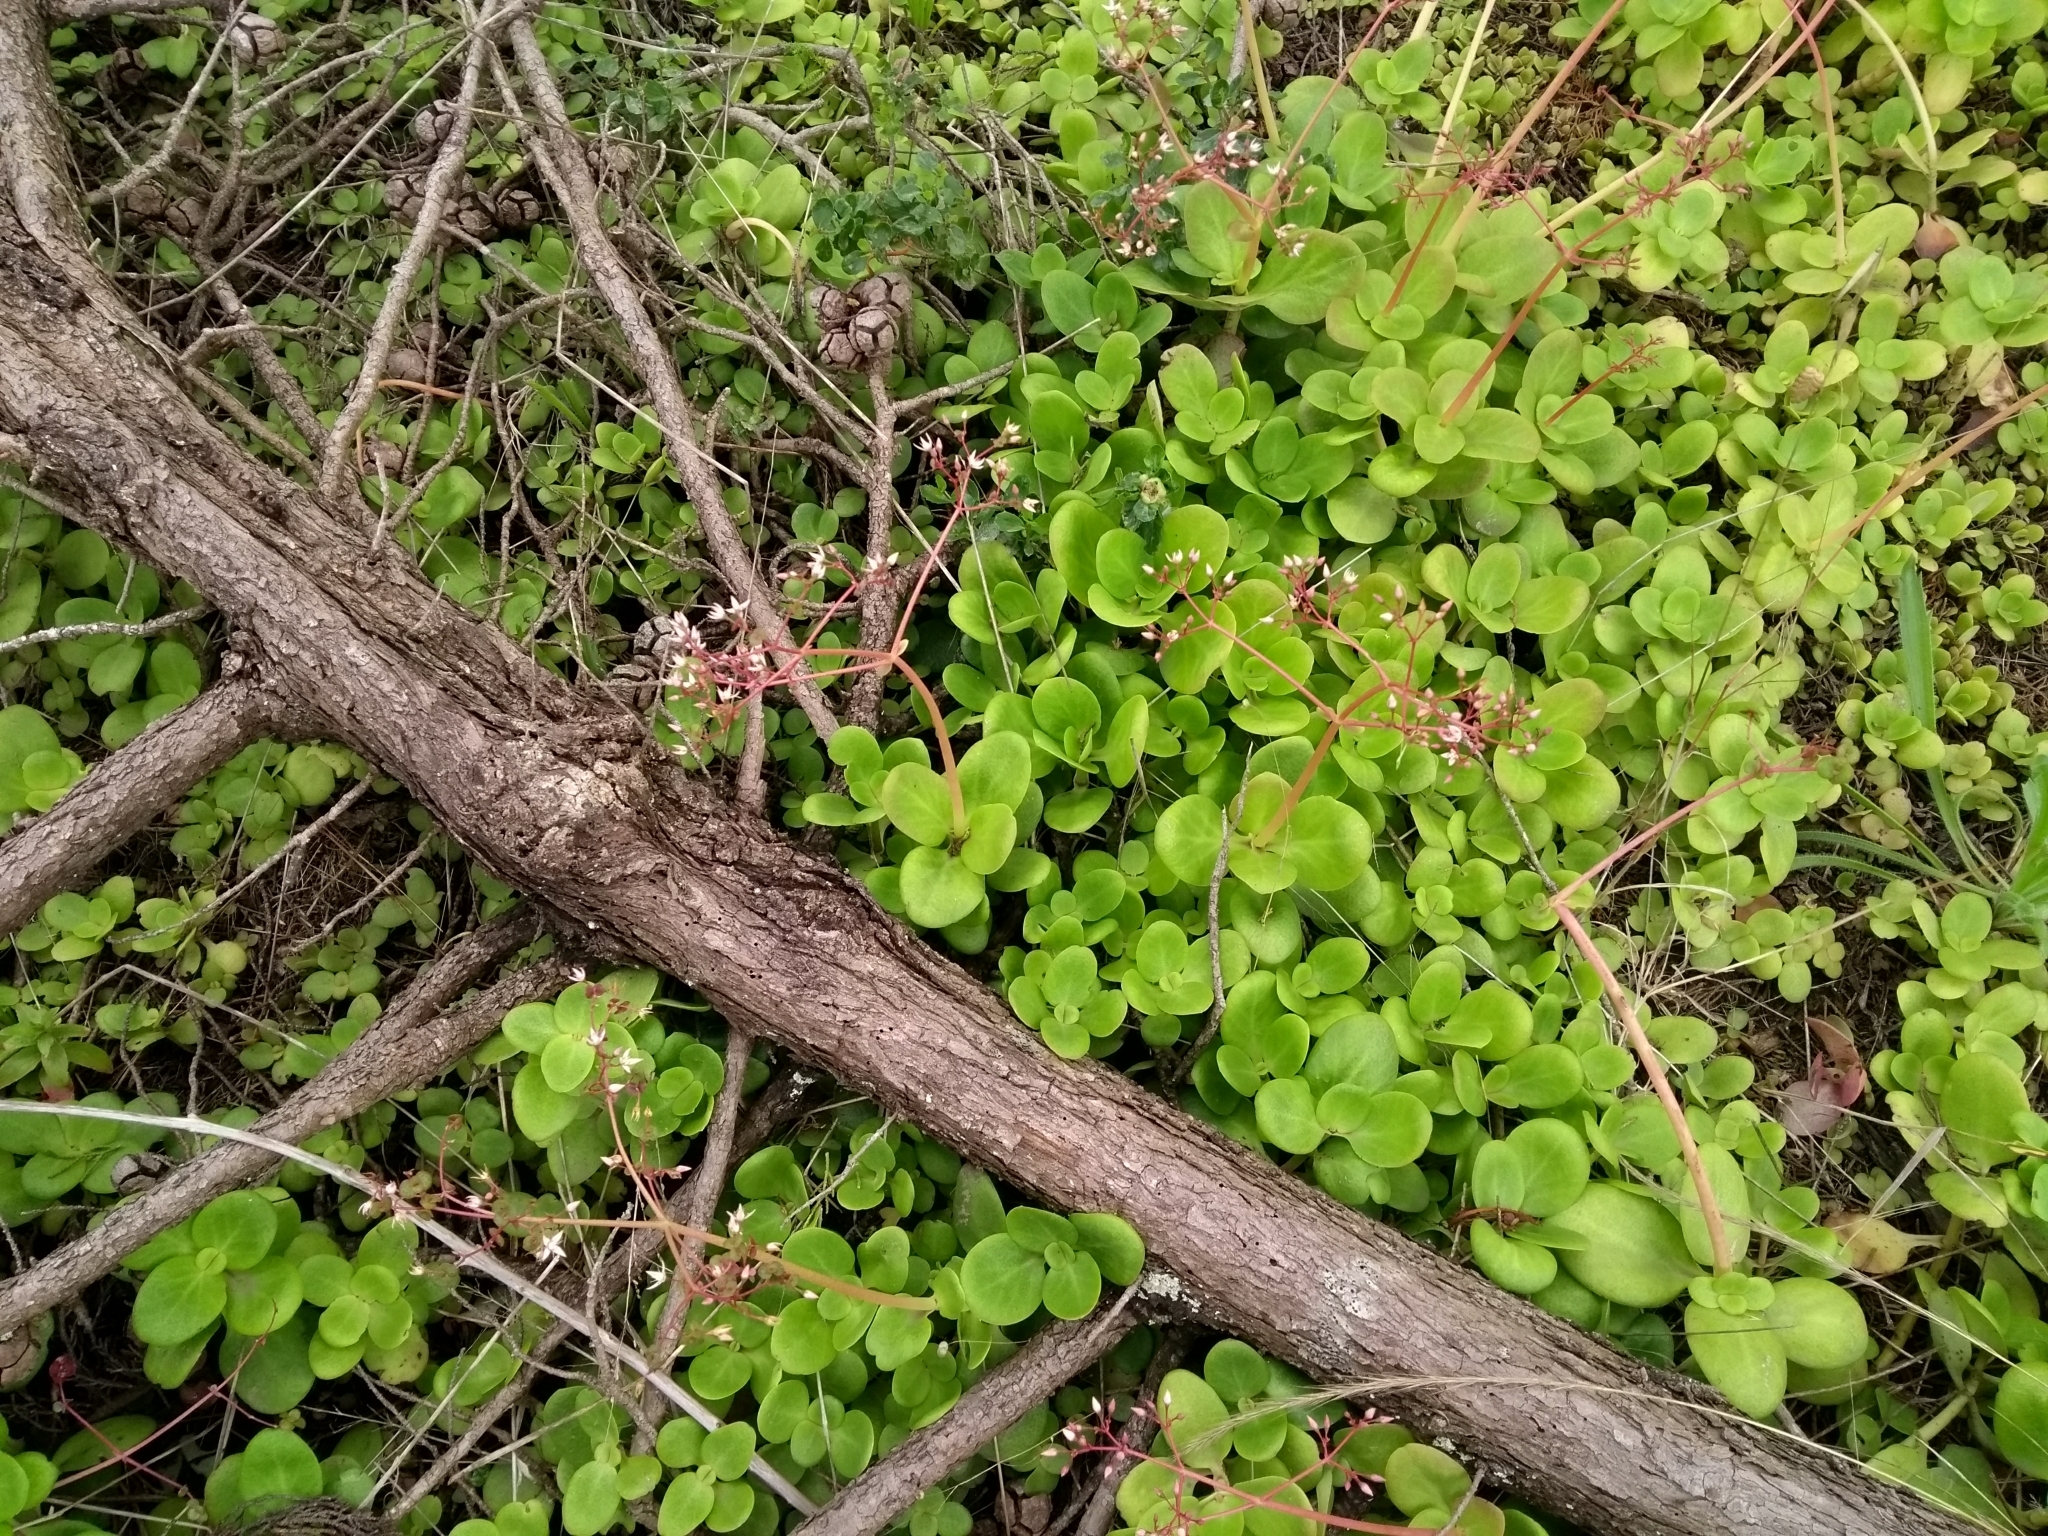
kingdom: Plantae
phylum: Tracheophyta
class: Magnoliopsida
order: Saxifragales
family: Crassulaceae
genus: Crassula
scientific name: Crassula multicava
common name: Cape province pygmyweed
